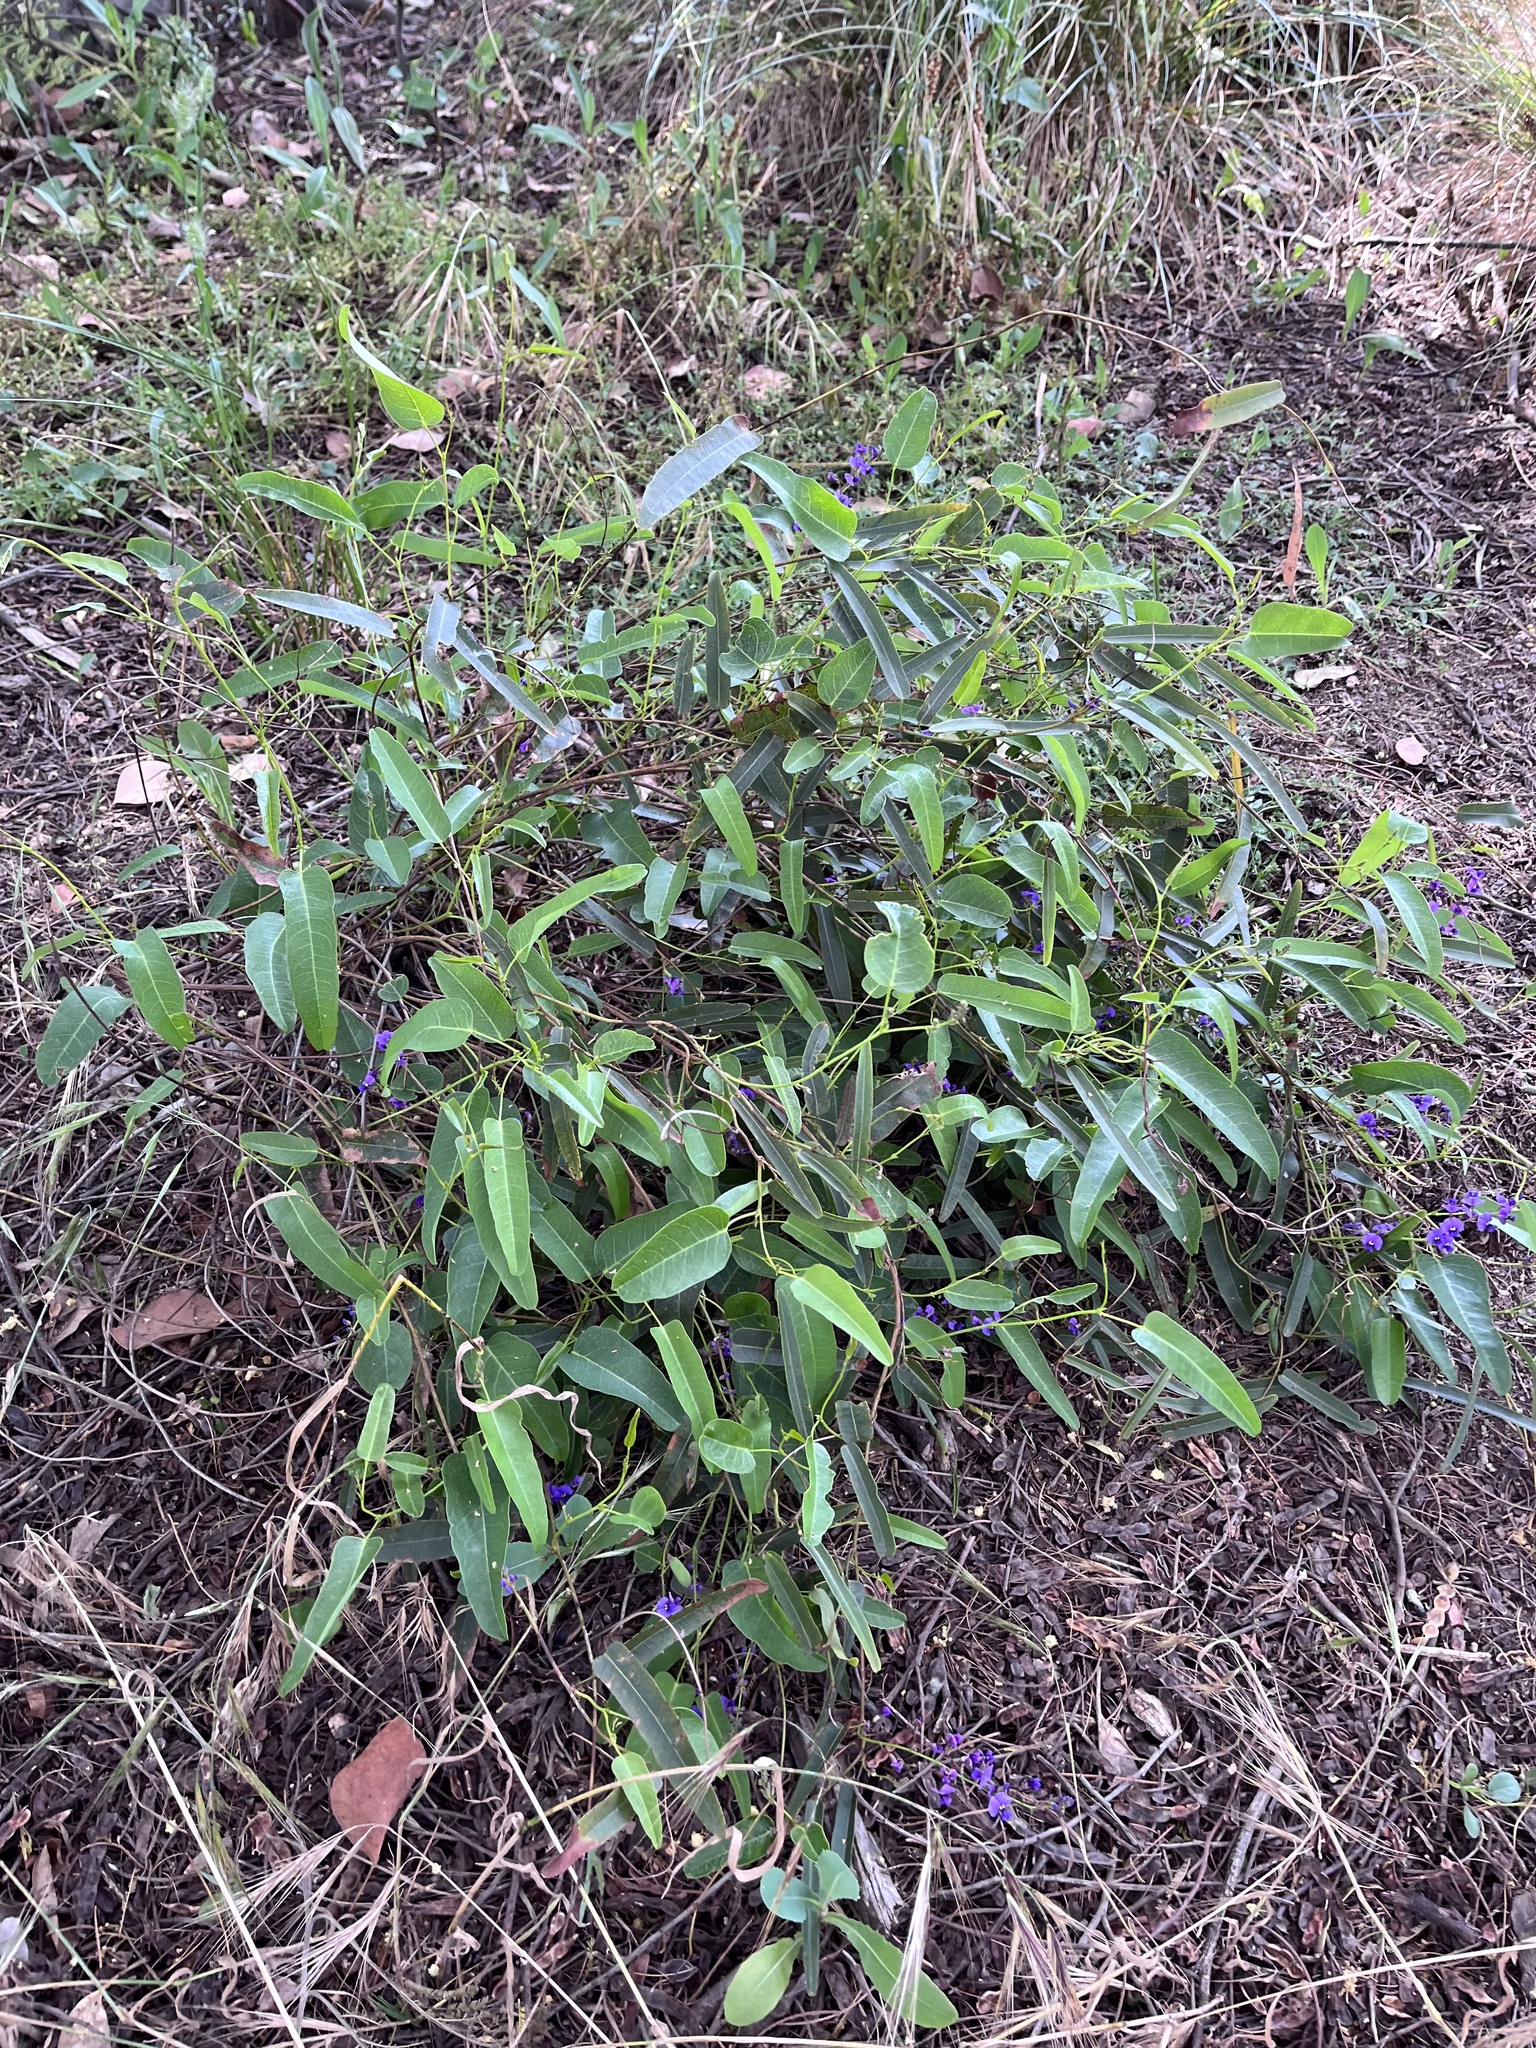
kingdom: Plantae
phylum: Tracheophyta
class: Magnoliopsida
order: Fabales
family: Fabaceae
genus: Hardenbergia
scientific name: Hardenbergia violacea
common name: Coral-pea
